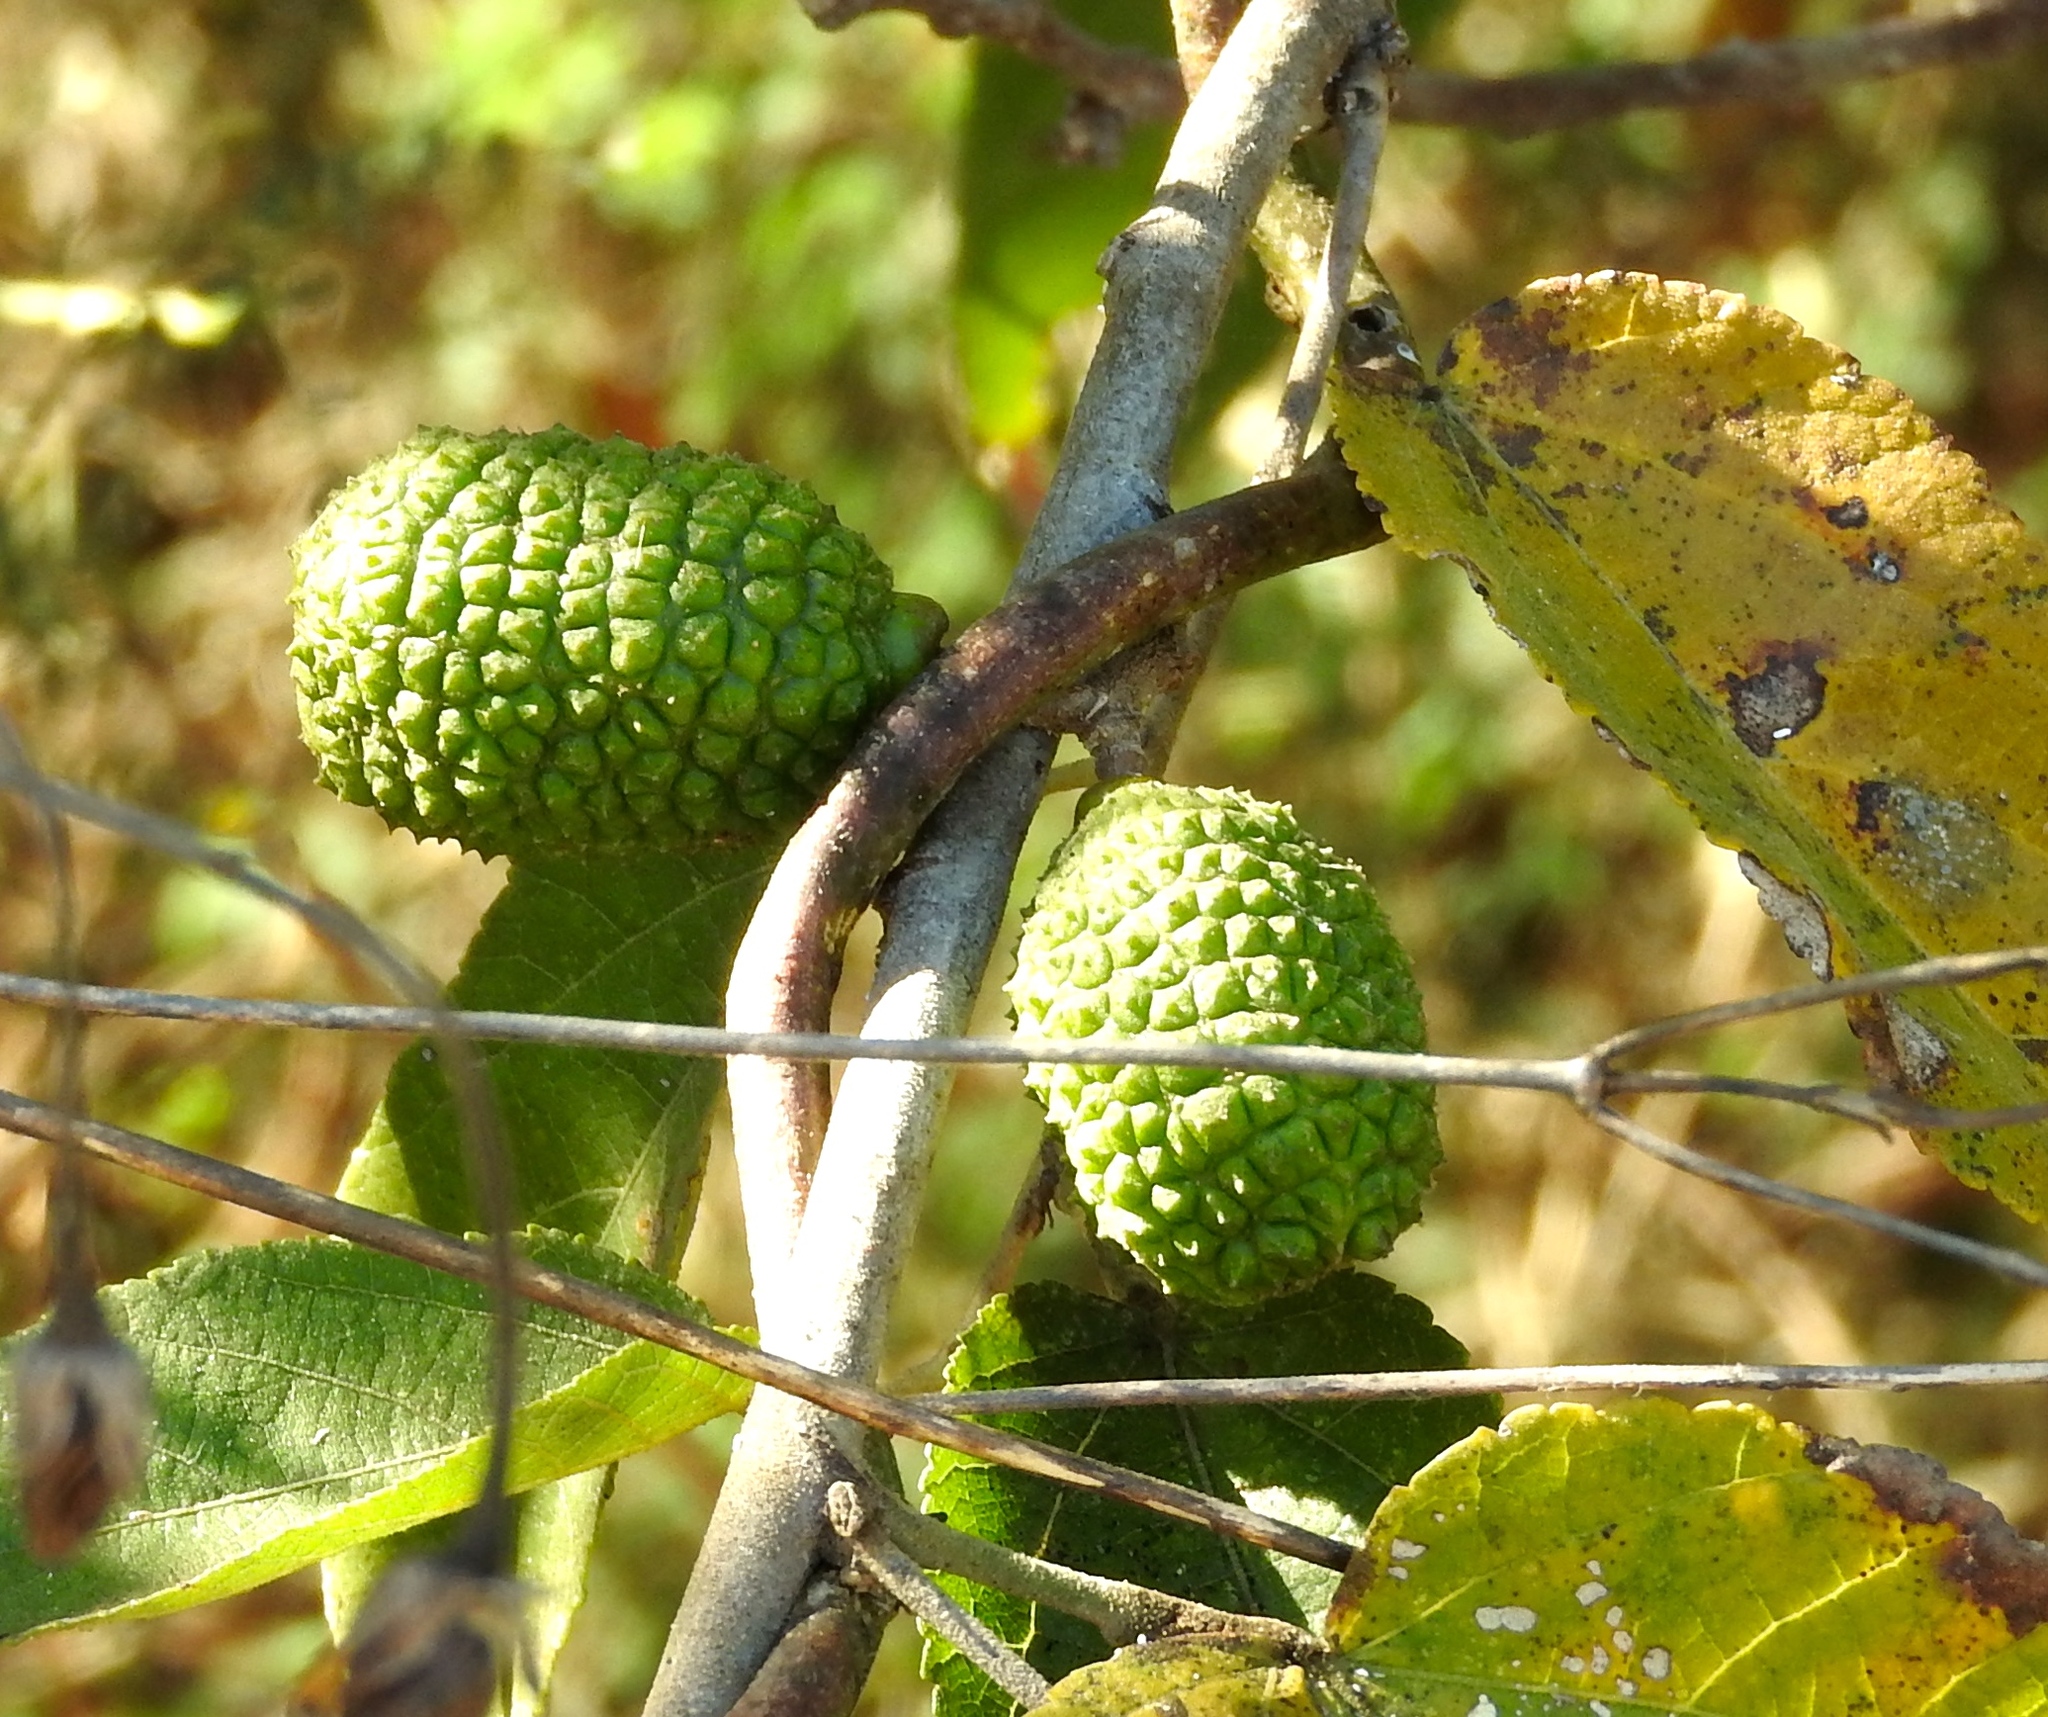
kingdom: Plantae
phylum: Tracheophyta
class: Magnoliopsida
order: Malvales
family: Malvaceae
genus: Guazuma
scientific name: Guazuma ulmifolia
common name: Bastard-cedar
